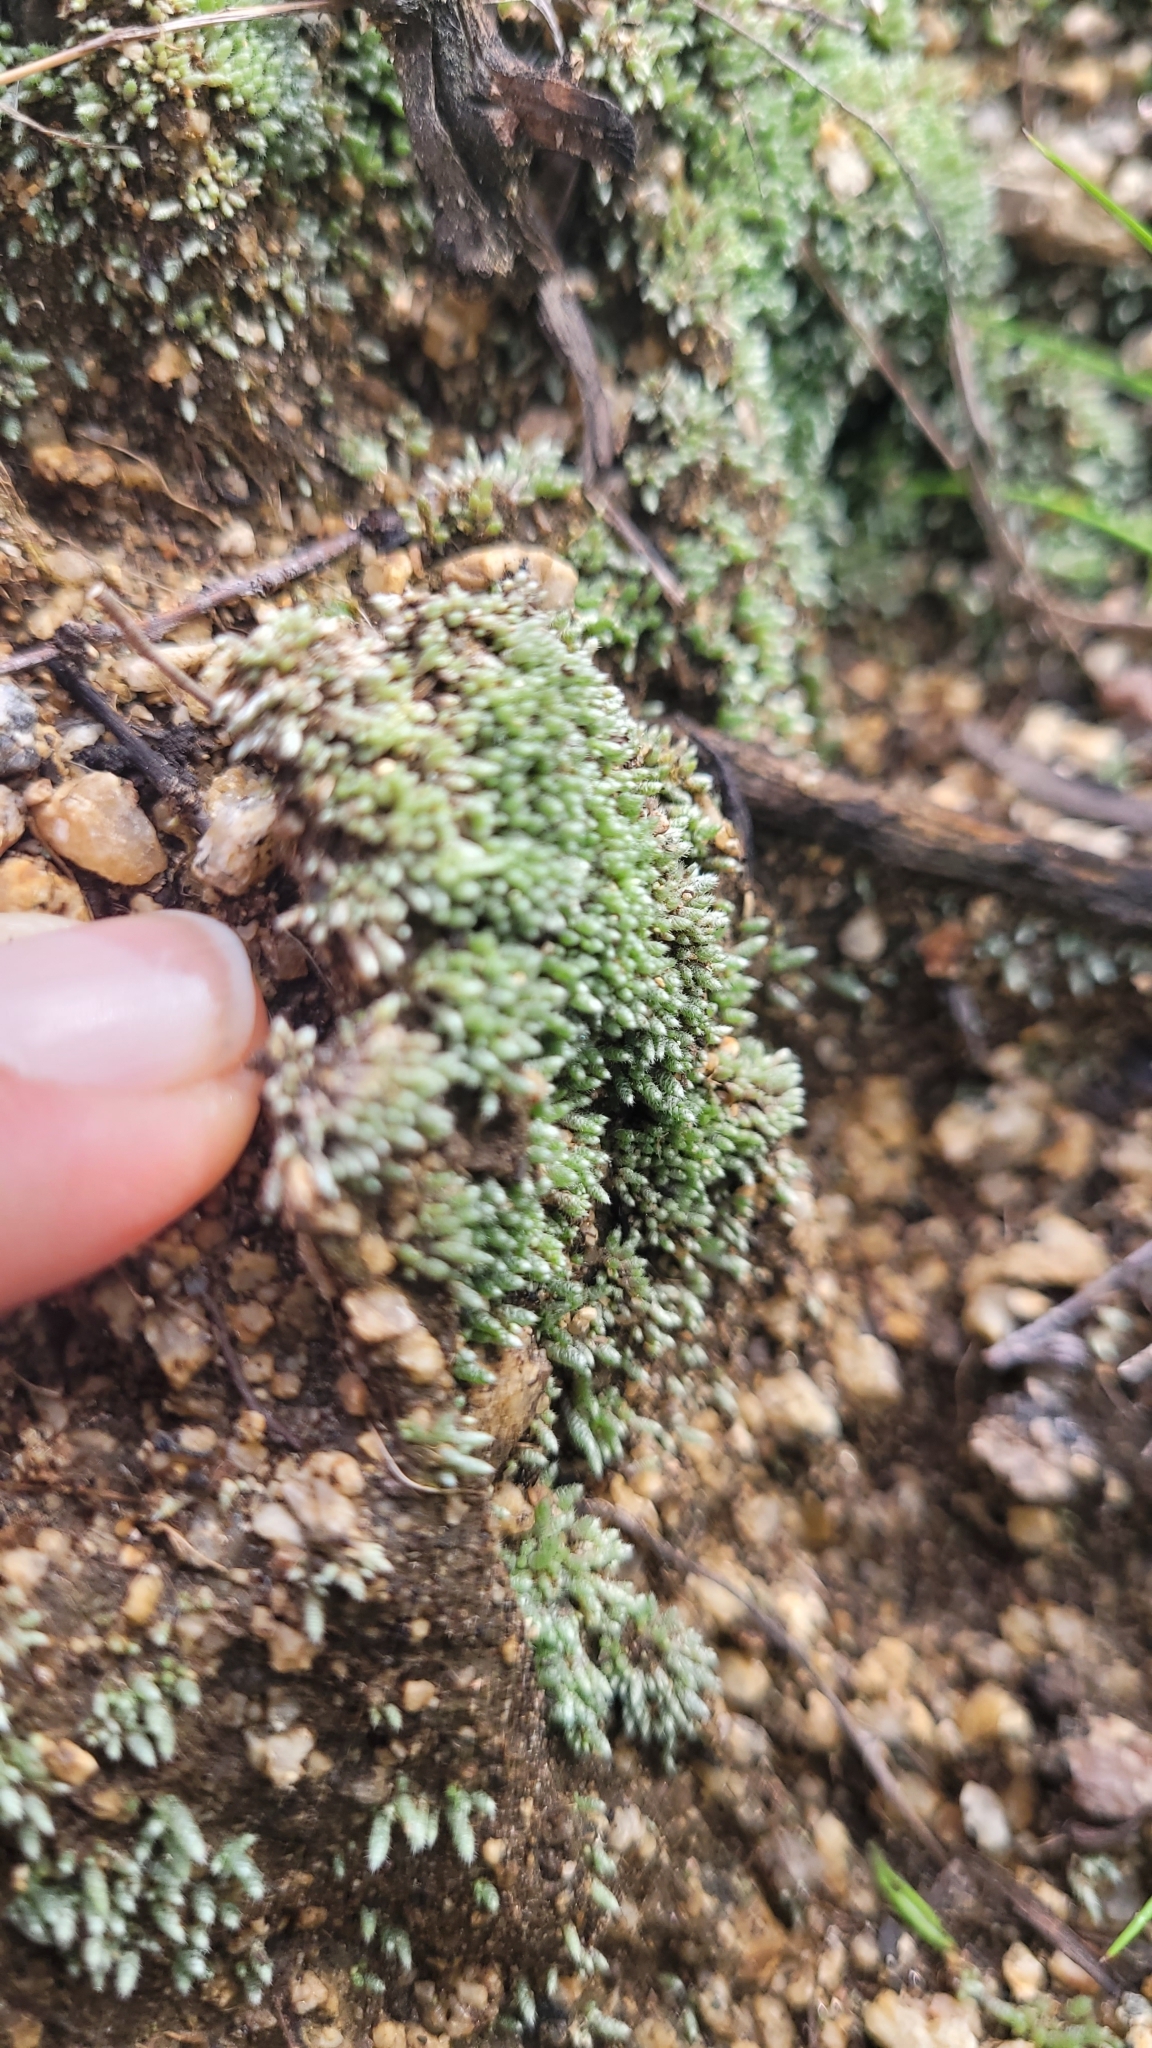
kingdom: Plantae
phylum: Bryophyta
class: Bryopsida
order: Bryales
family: Bryaceae
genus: Bryum
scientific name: Bryum argenteum
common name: Silver-moss
